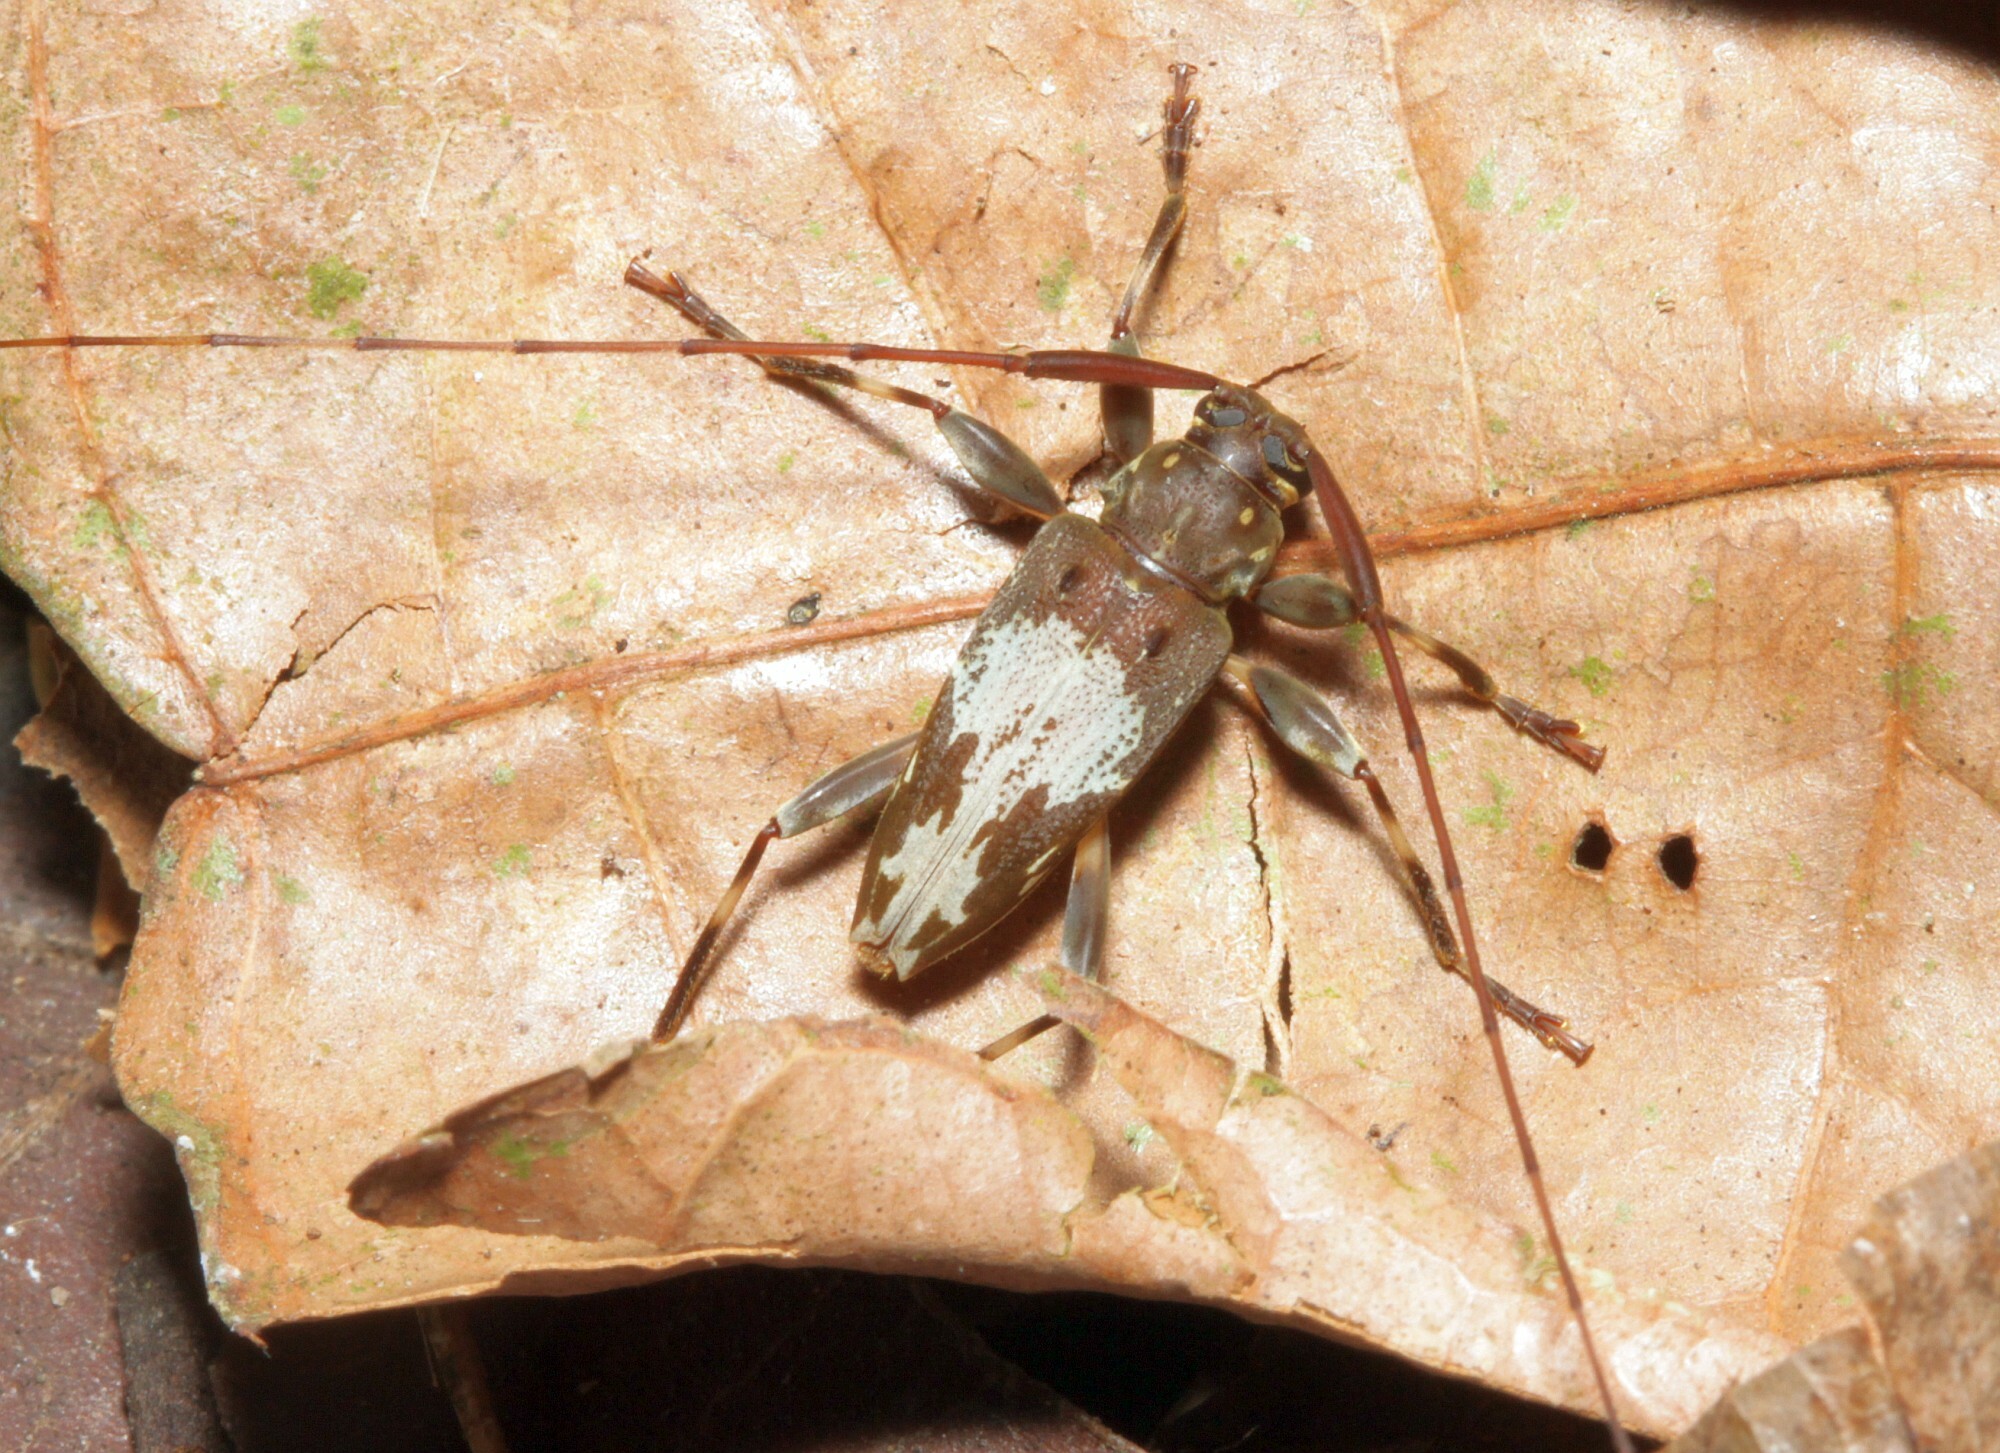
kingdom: Animalia
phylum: Arthropoda
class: Insecta
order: Coleoptera
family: Cerambycidae
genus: Ozineus
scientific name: Ozineus nyssodroides
